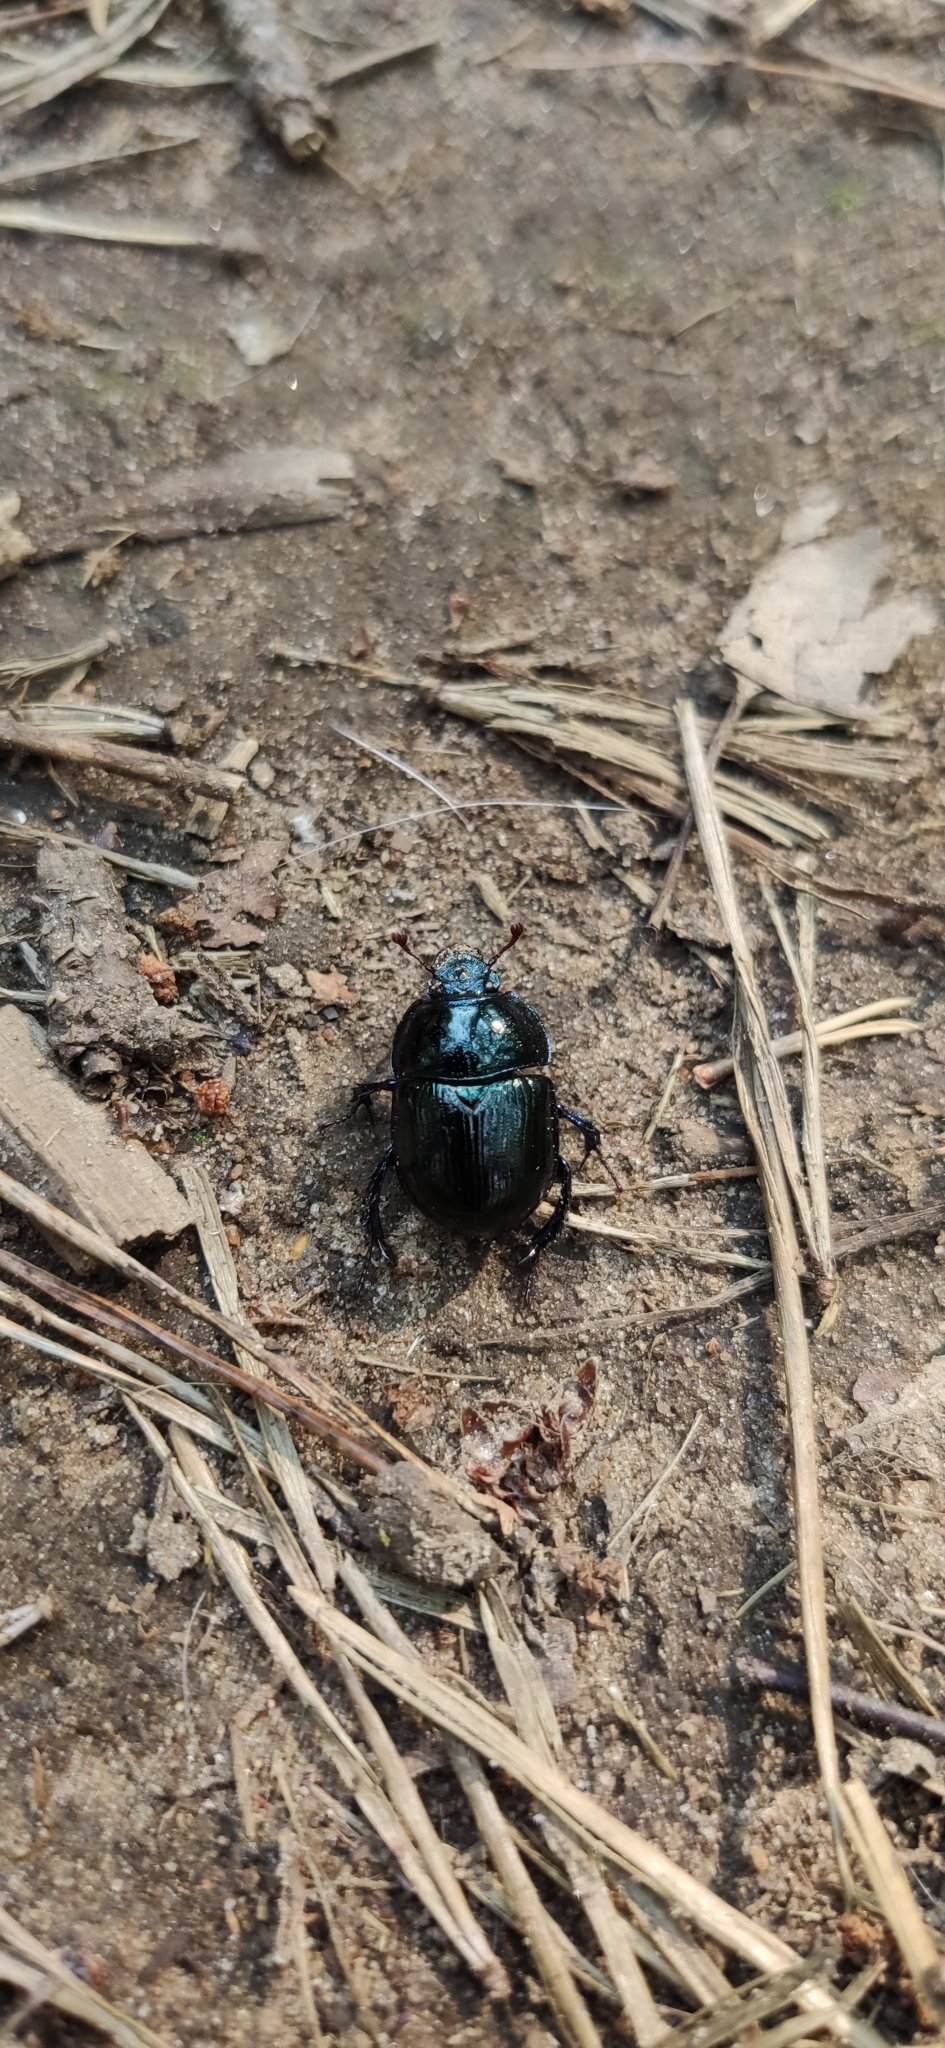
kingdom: Animalia
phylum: Arthropoda
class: Insecta
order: Coleoptera
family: Geotrupidae
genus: Anoplotrupes
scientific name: Anoplotrupes stercorosus
